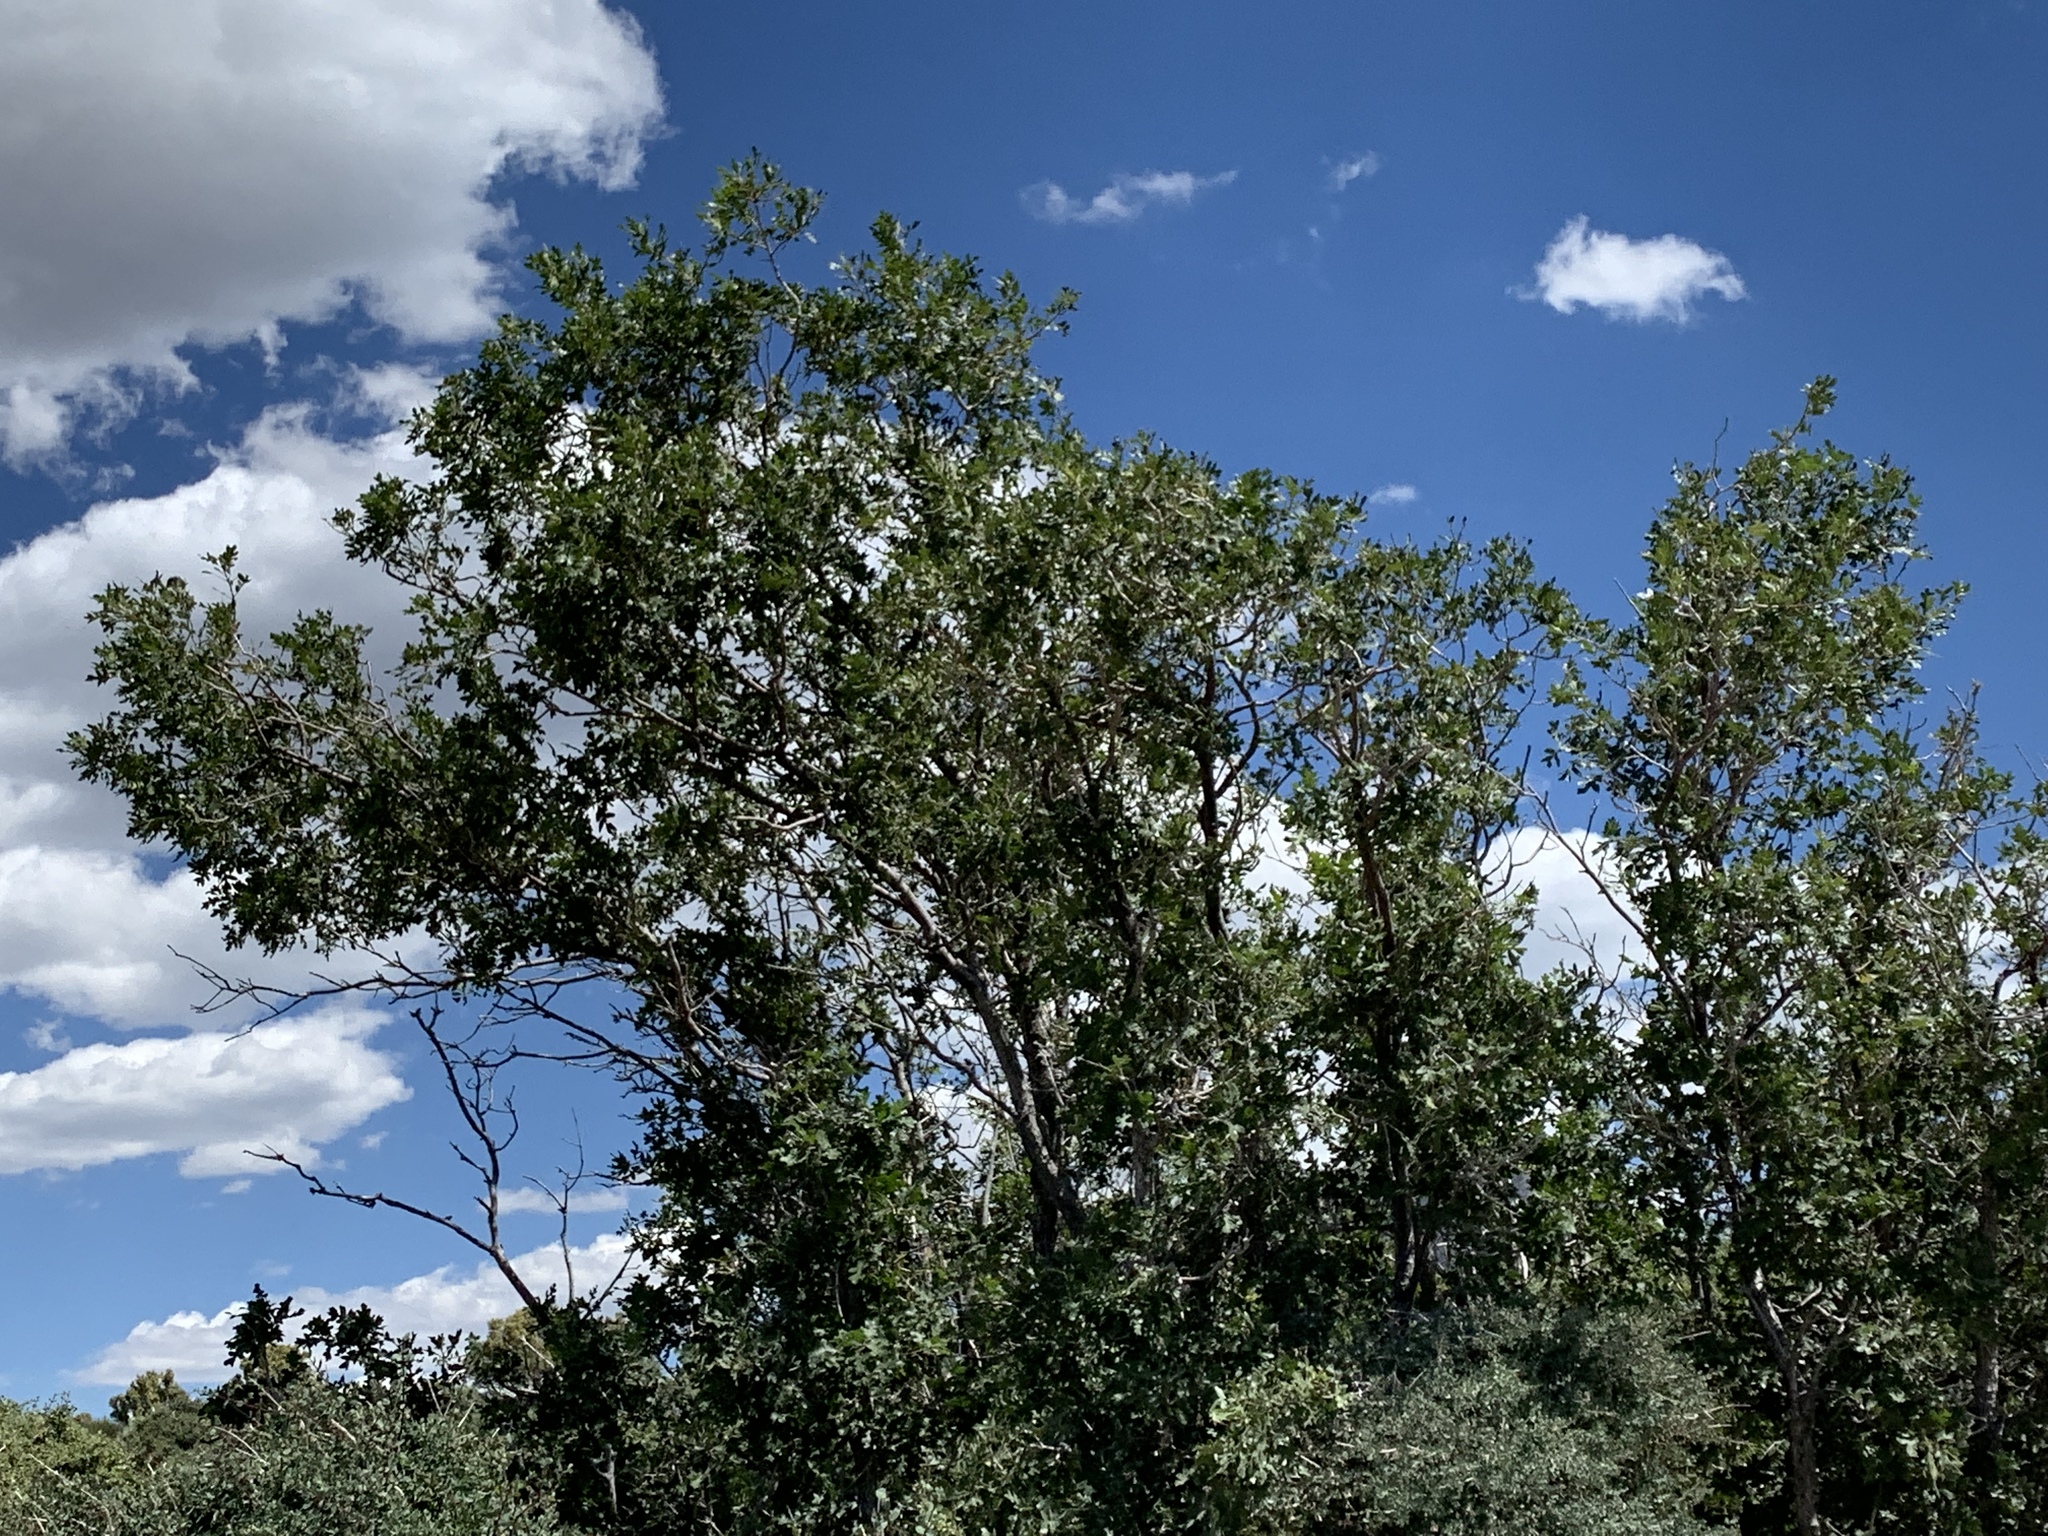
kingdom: Plantae
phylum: Tracheophyta
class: Magnoliopsida
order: Fagales
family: Fagaceae
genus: Quercus
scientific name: Quercus gambelii
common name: Gambel oak
